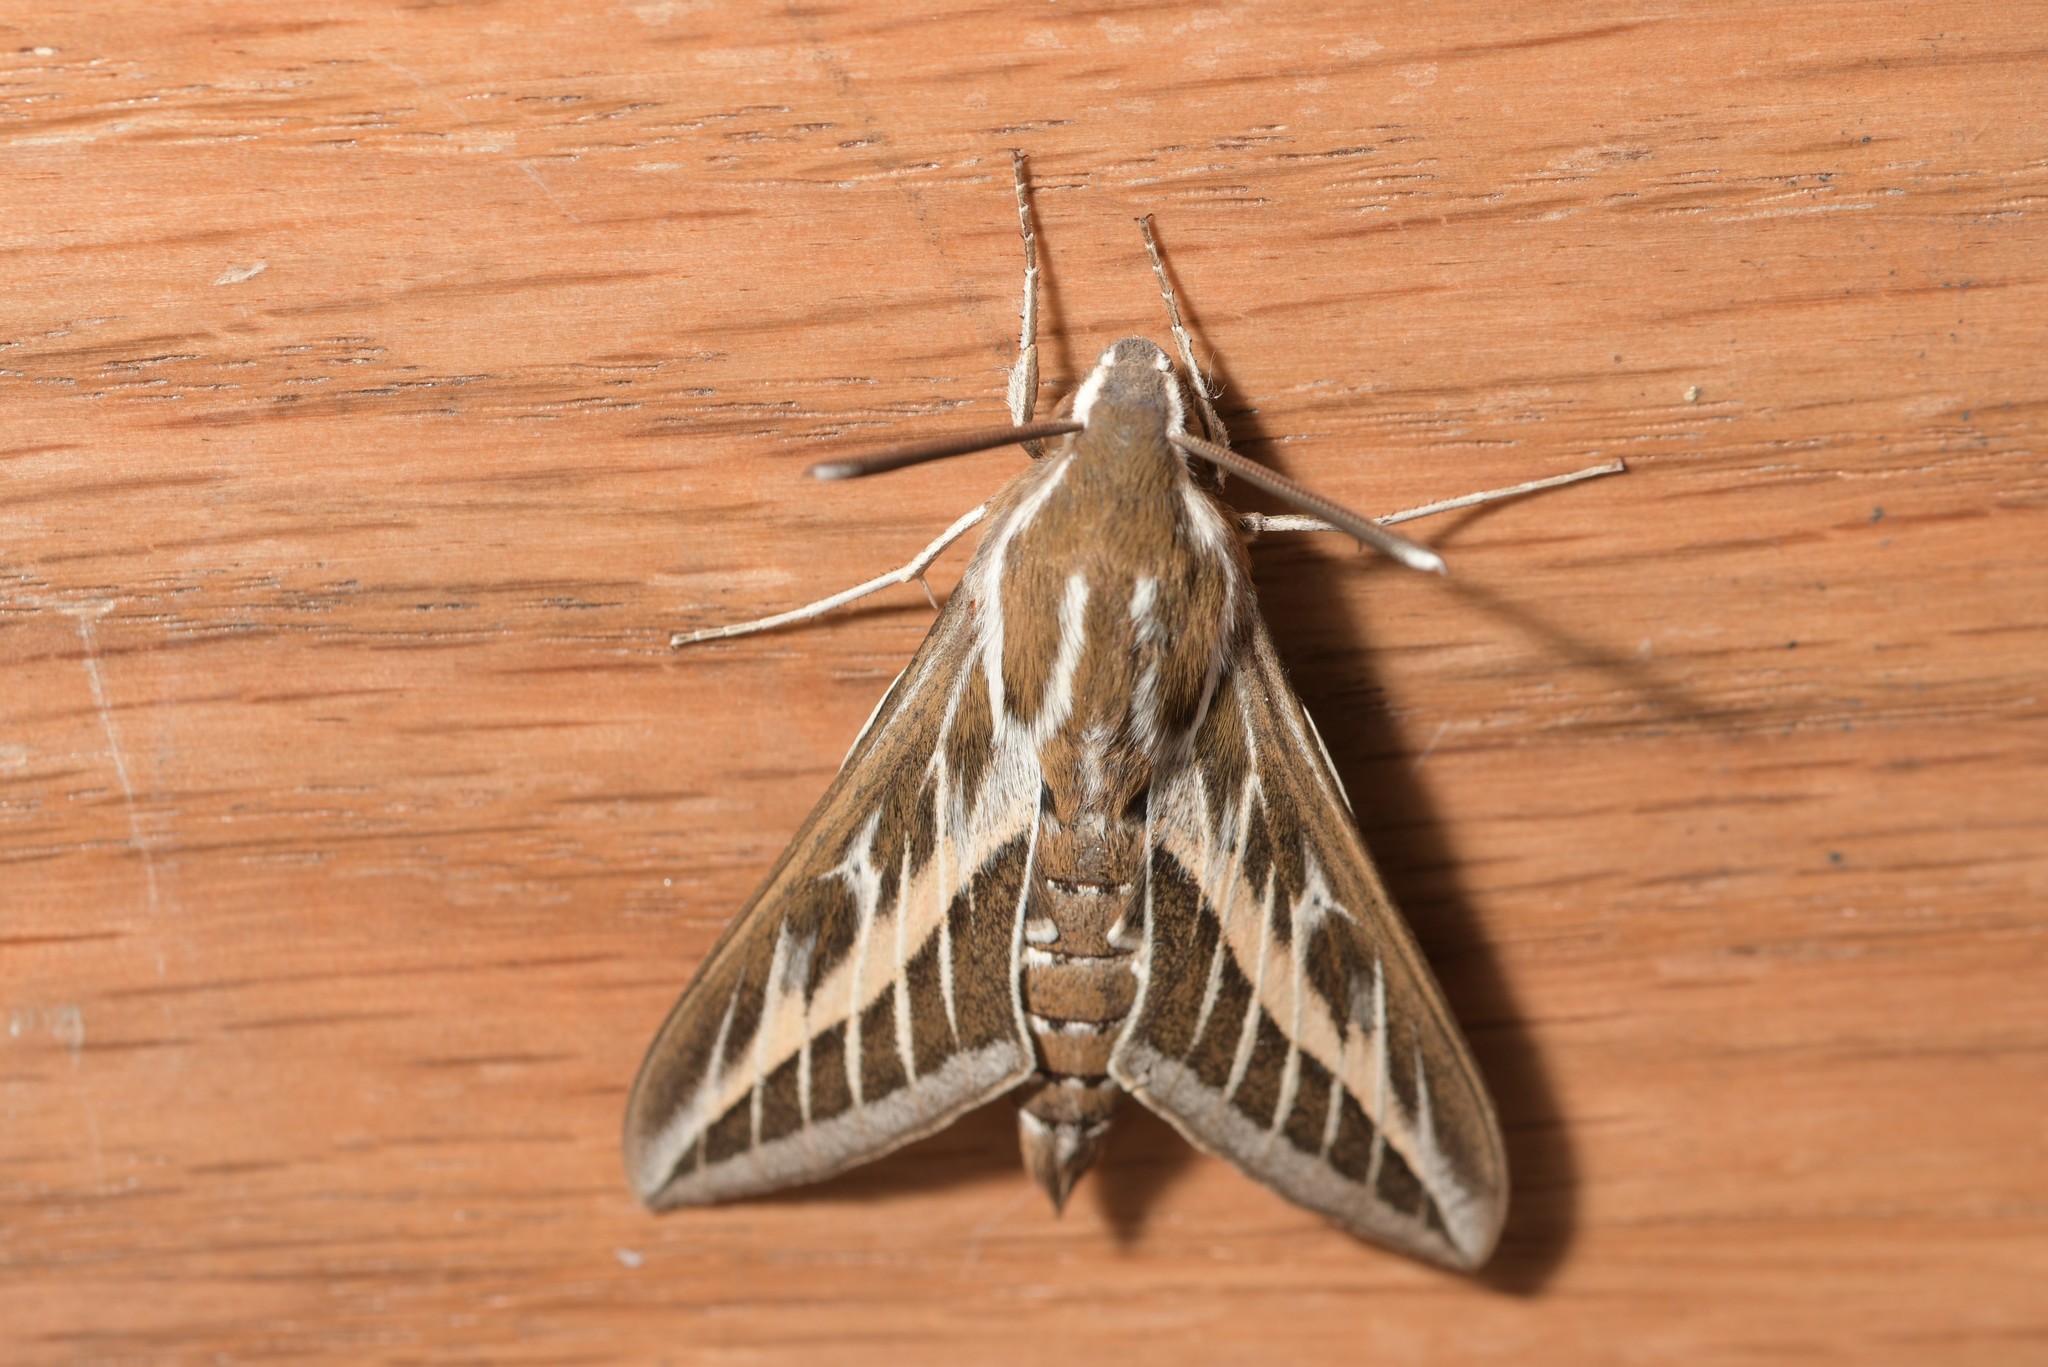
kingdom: Animalia
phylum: Arthropoda
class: Insecta
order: Lepidoptera
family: Sphingidae
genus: Hyles
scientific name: Hyles livornica
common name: Striped hawk-moth
